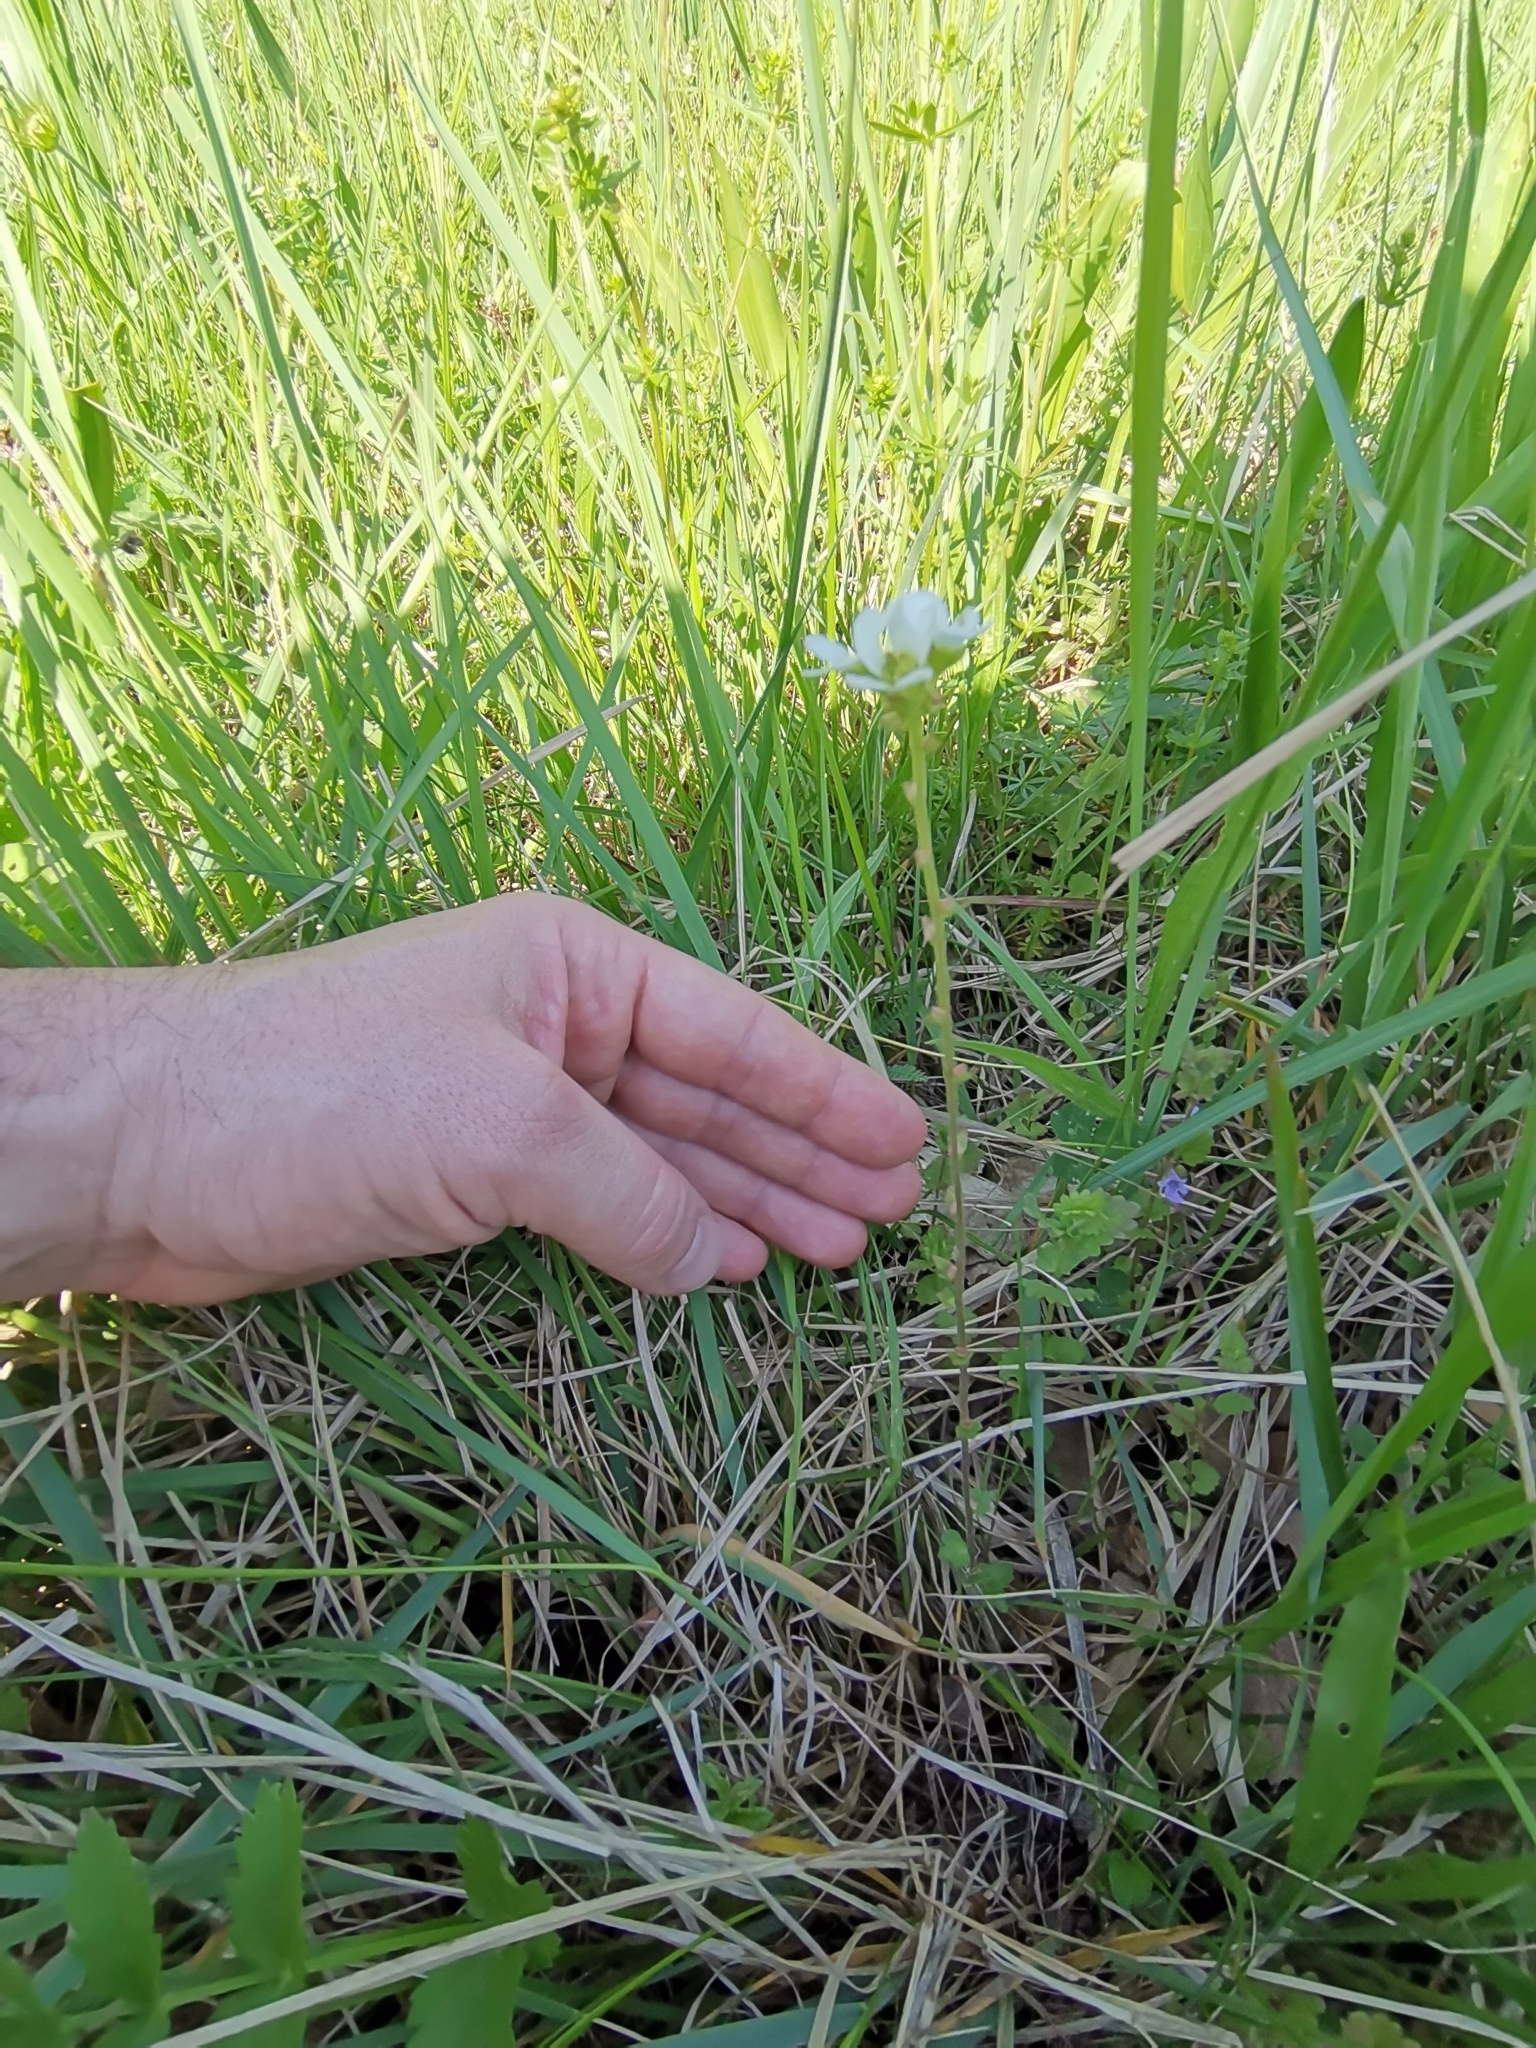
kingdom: Plantae
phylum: Tracheophyta
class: Magnoliopsida
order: Saxifragales
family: Saxifragaceae
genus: Saxifraga
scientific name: Saxifraga bulbifera
